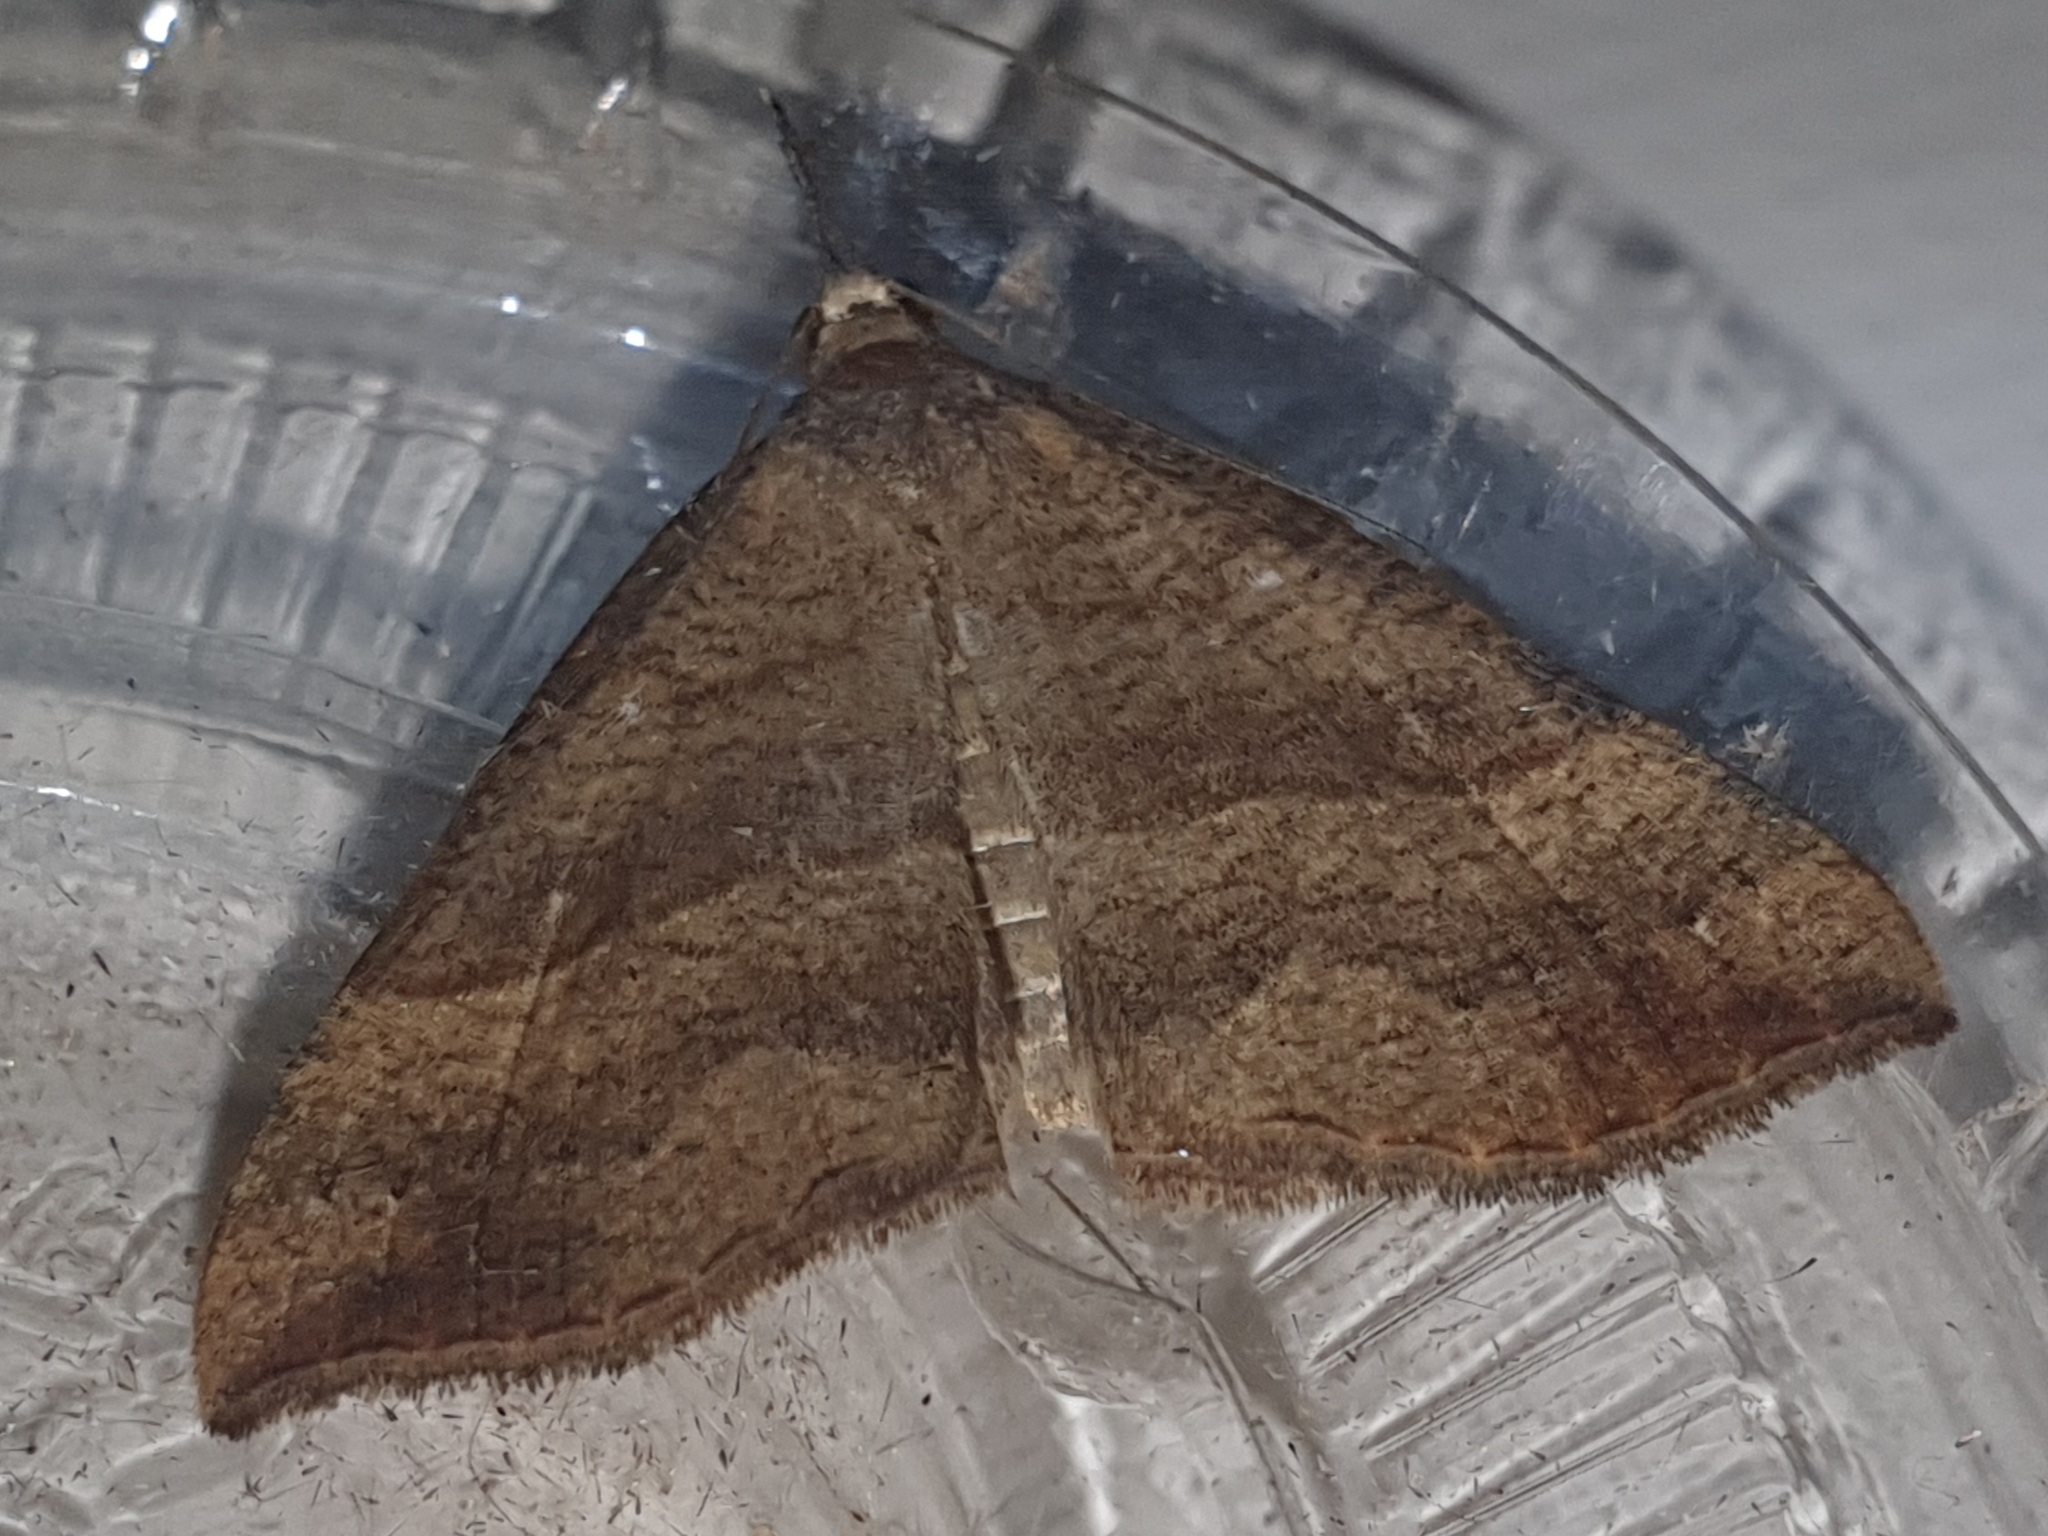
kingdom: Animalia
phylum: Arthropoda
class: Insecta
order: Lepidoptera
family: Erebidae
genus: Hypena
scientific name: Hypena proboscidalis
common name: Snout
